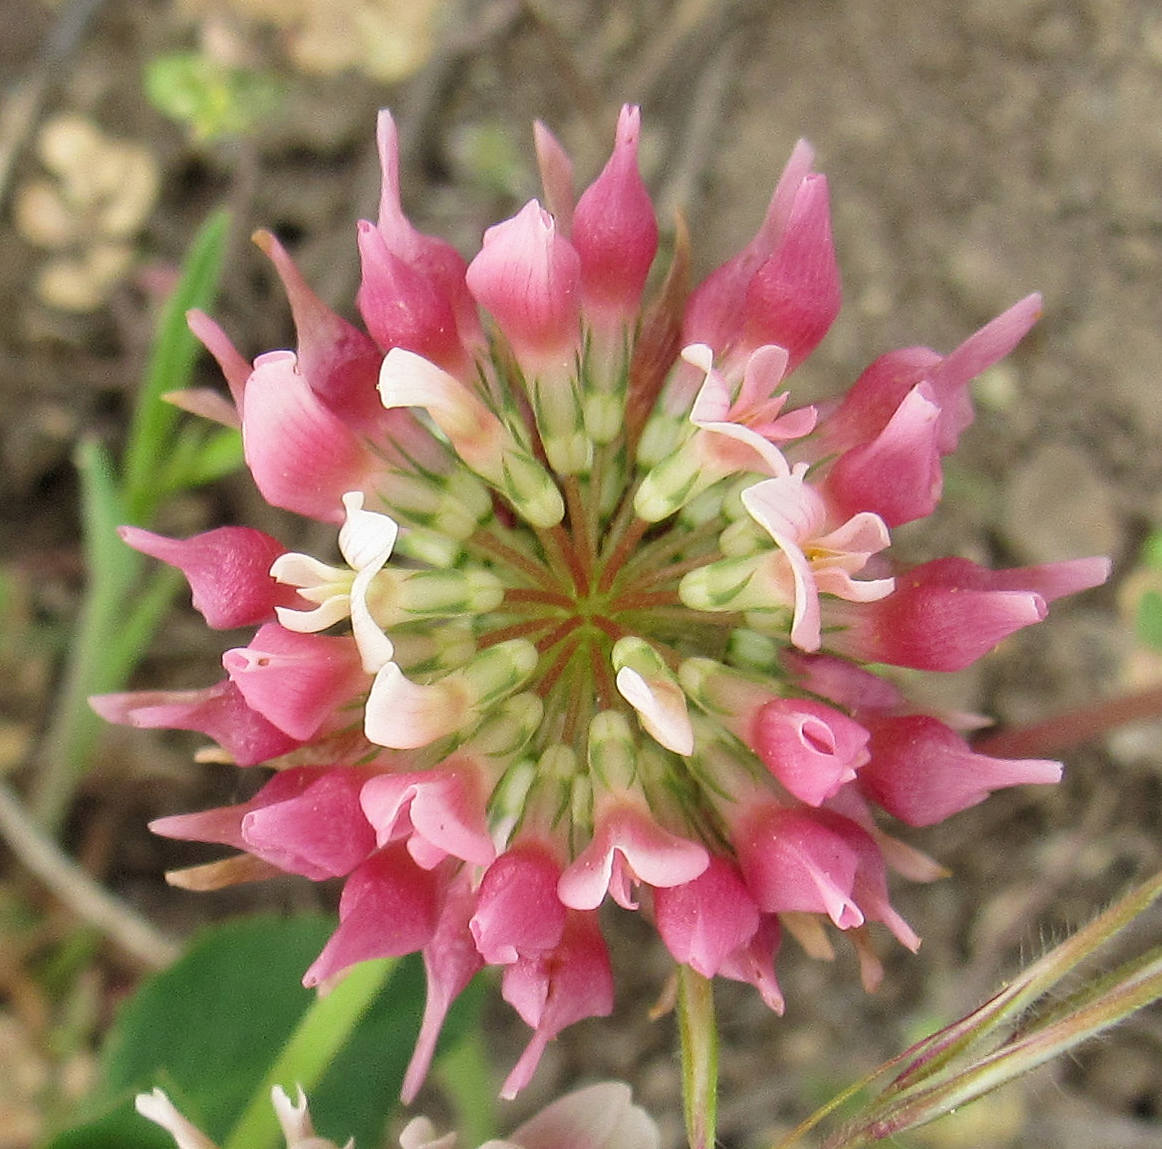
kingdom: Plantae
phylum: Tracheophyta
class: Magnoliopsida
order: Fabales
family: Fabaceae
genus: Trifolium
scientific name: Trifolium hybridum
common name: Alsike clover
